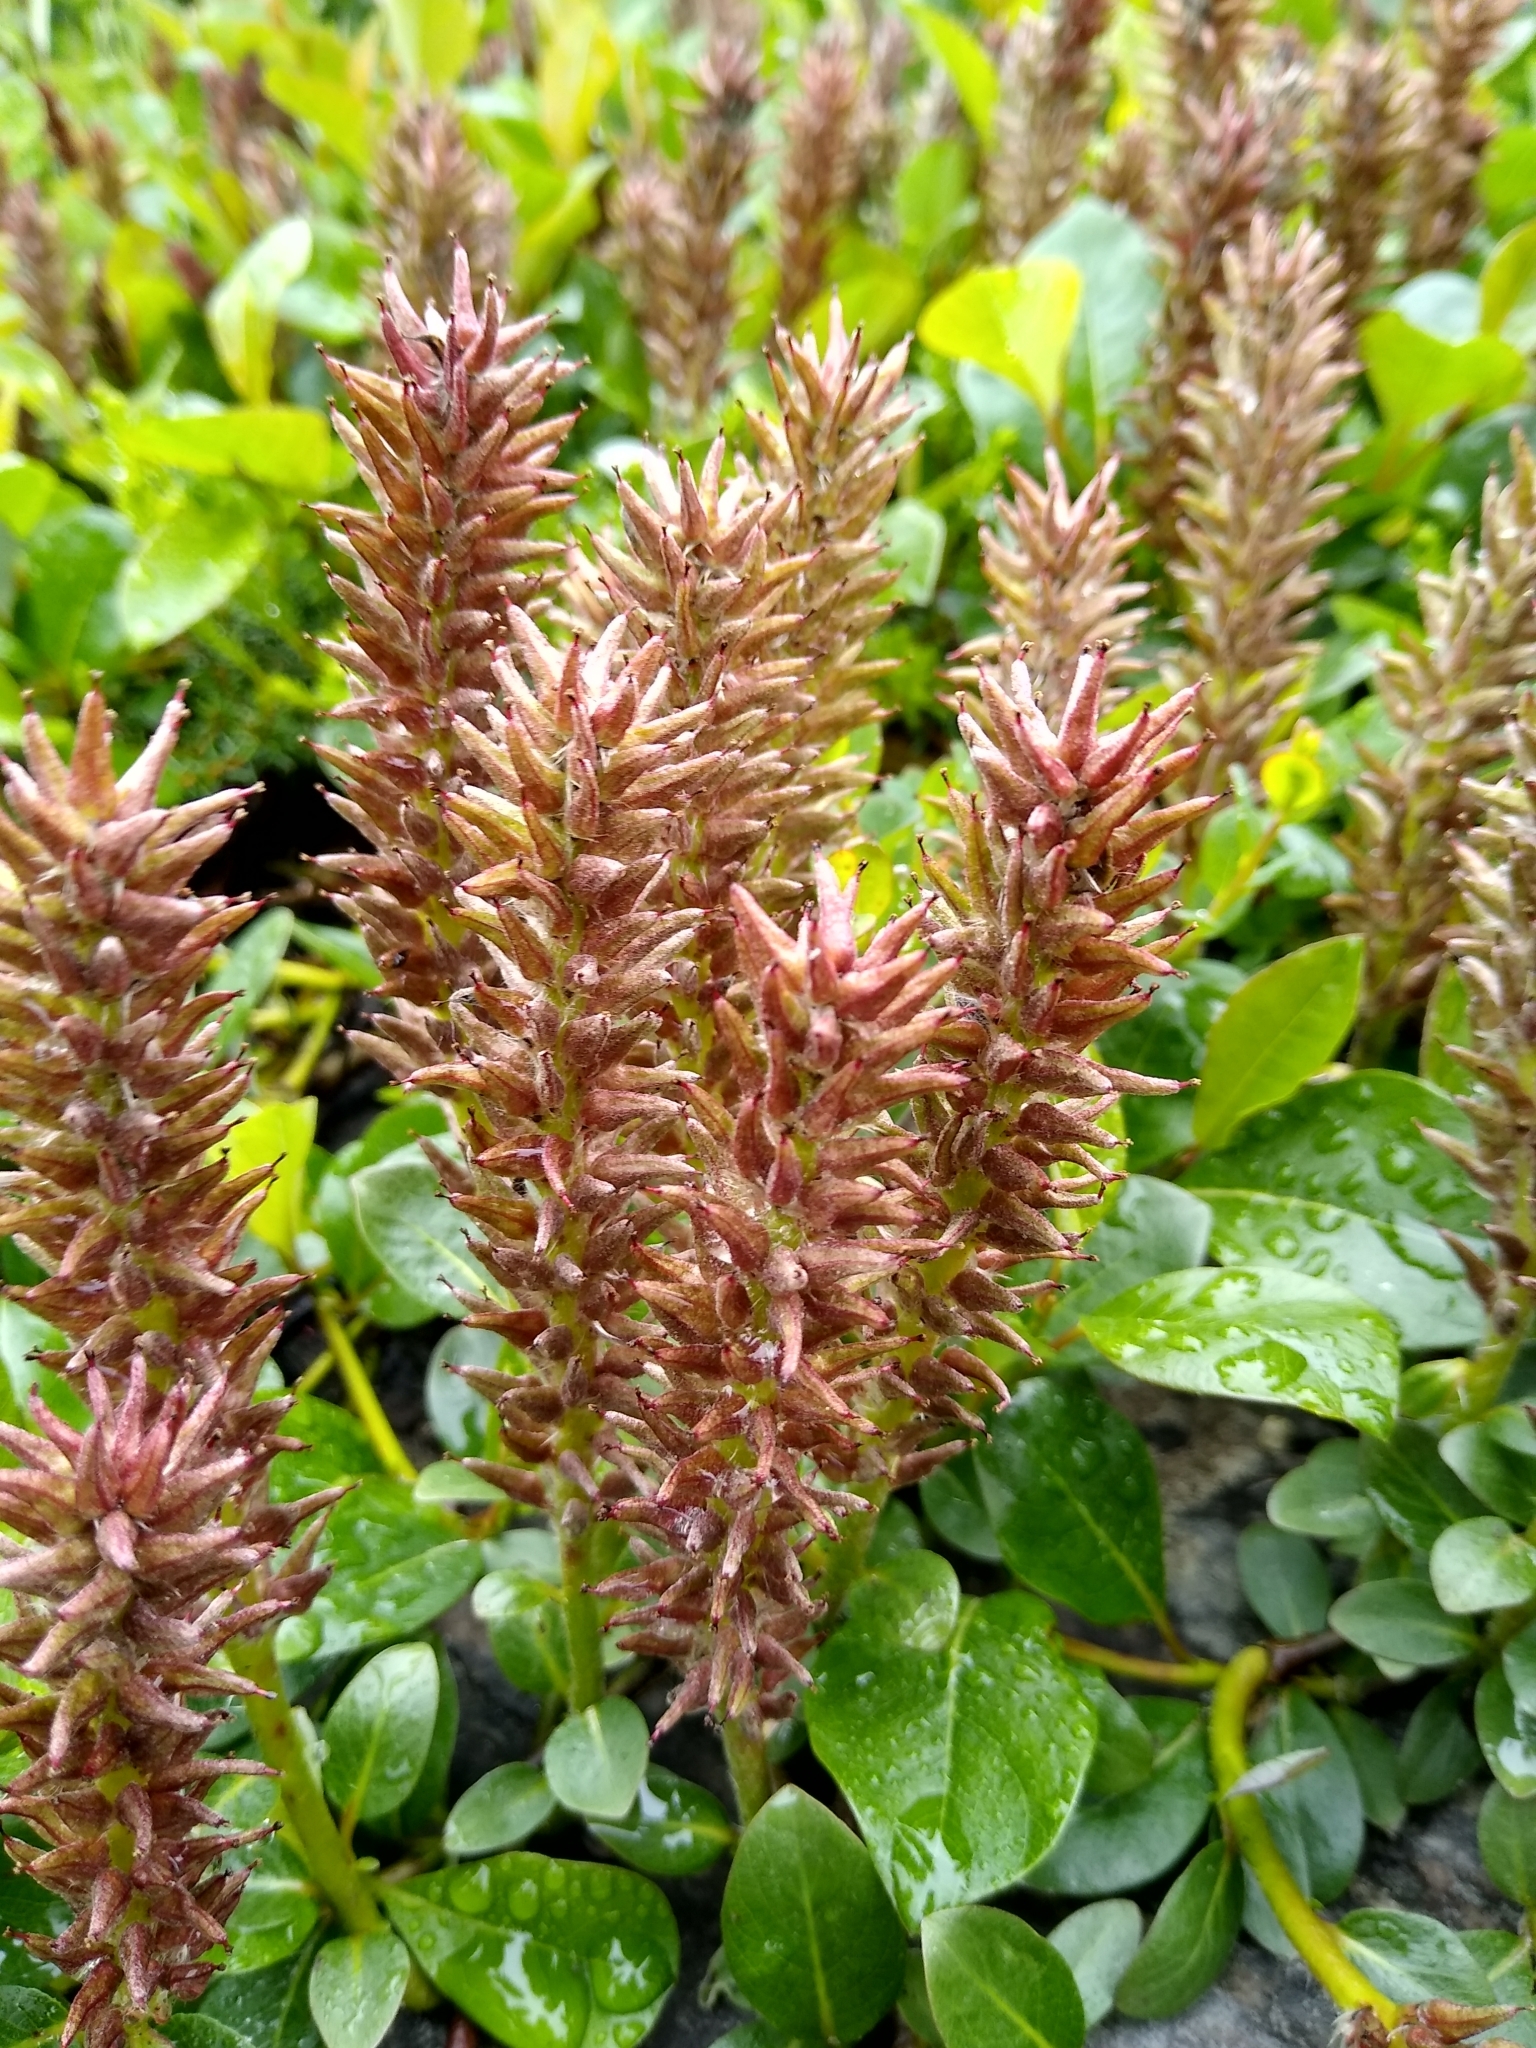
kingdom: Plantae
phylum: Tracheophyta
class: Magnoliopsida
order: Malpighiales
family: Salicaceae
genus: Salix
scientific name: Salix arctophila
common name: Greenland willow
